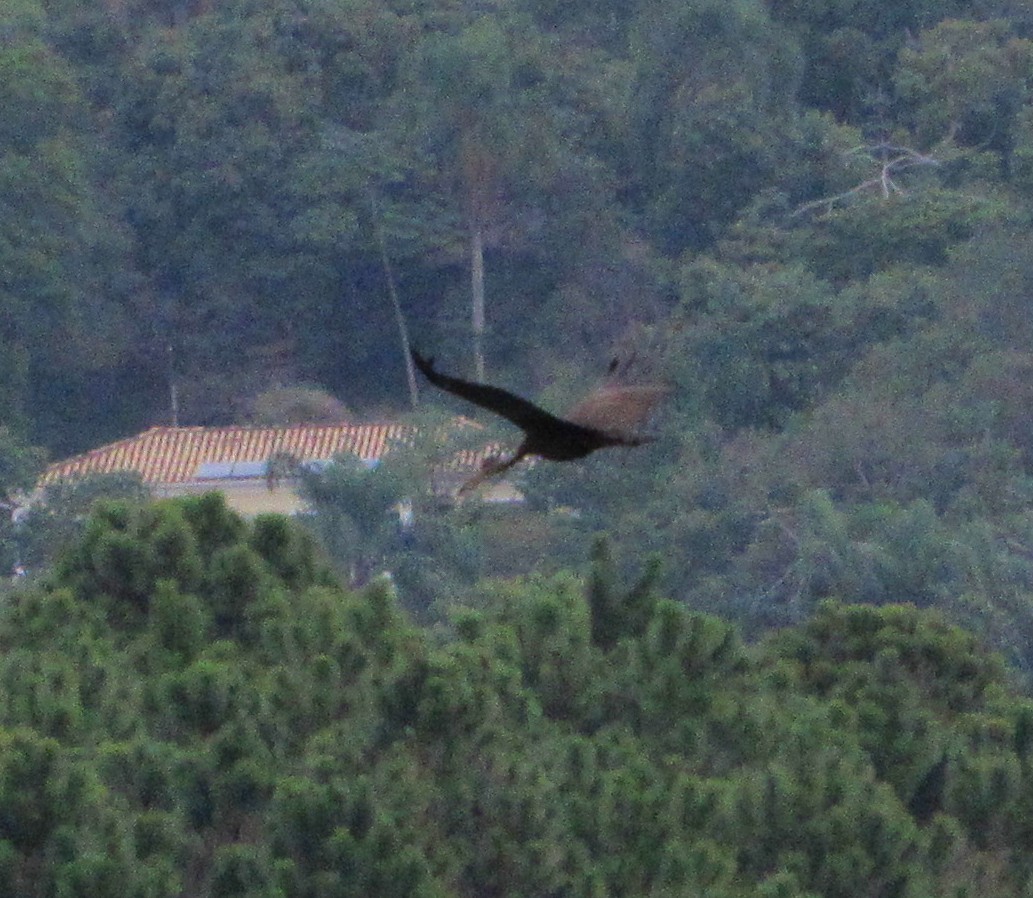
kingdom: Animalia
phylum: Chordata
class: Aves
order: Gruiformes
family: Aramidae
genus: Aramus
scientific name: Aramus guarauna
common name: Limpkin
